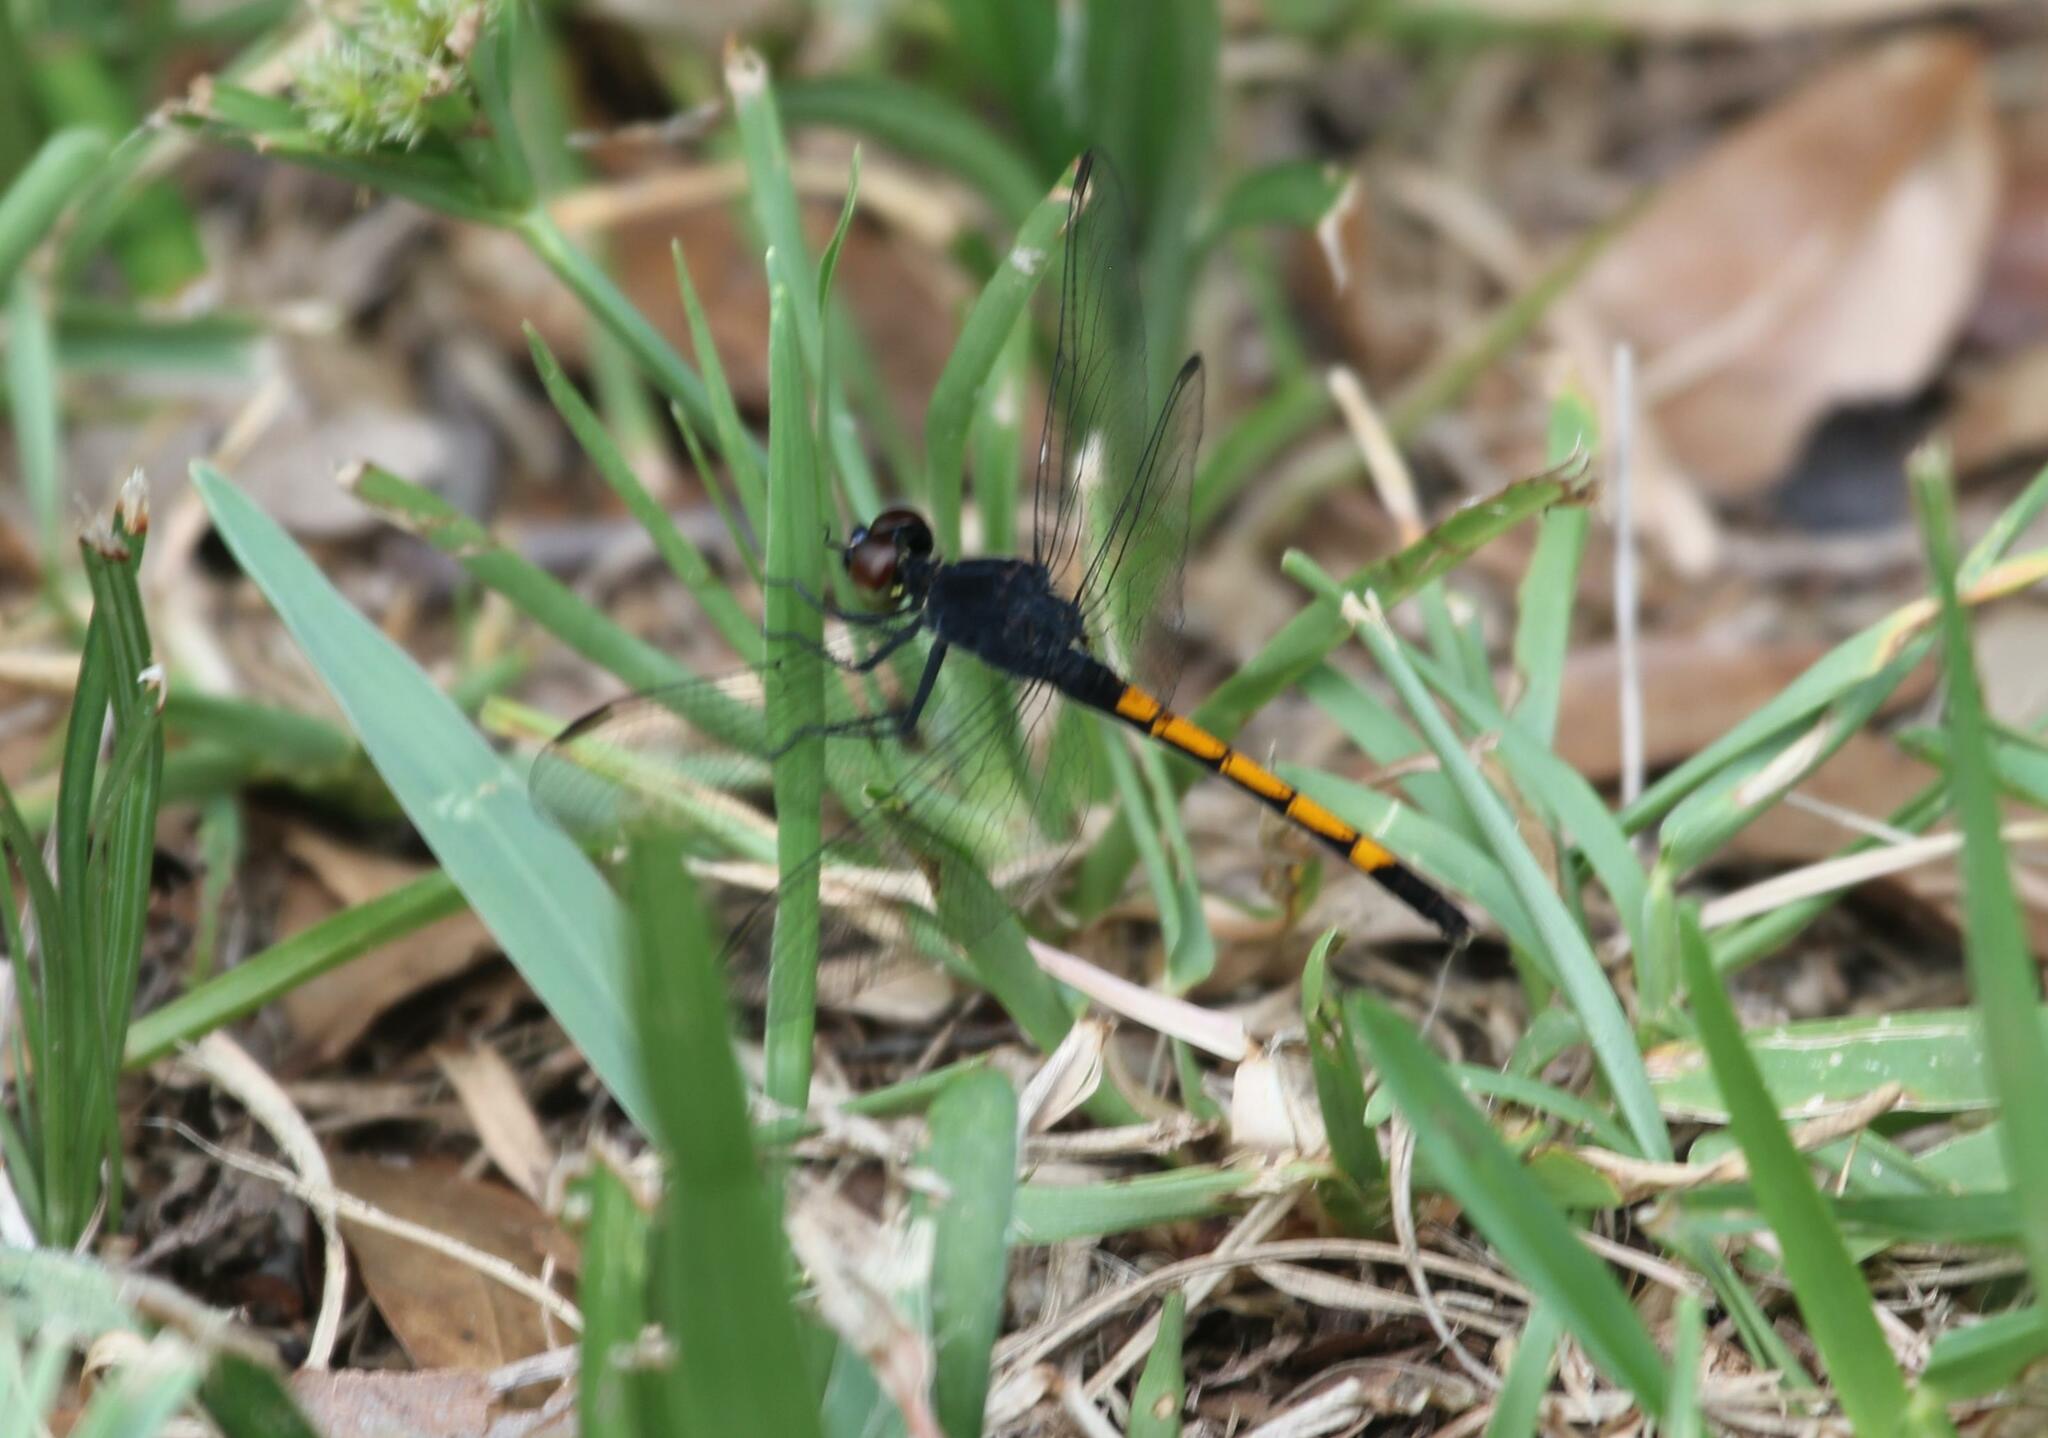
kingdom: Animalia
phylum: Arthropoda
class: Insecta
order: Odonata
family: Libellulidae
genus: Erythrodiplax
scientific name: Erythrodiplax berenice
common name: Seaside dragonlet
